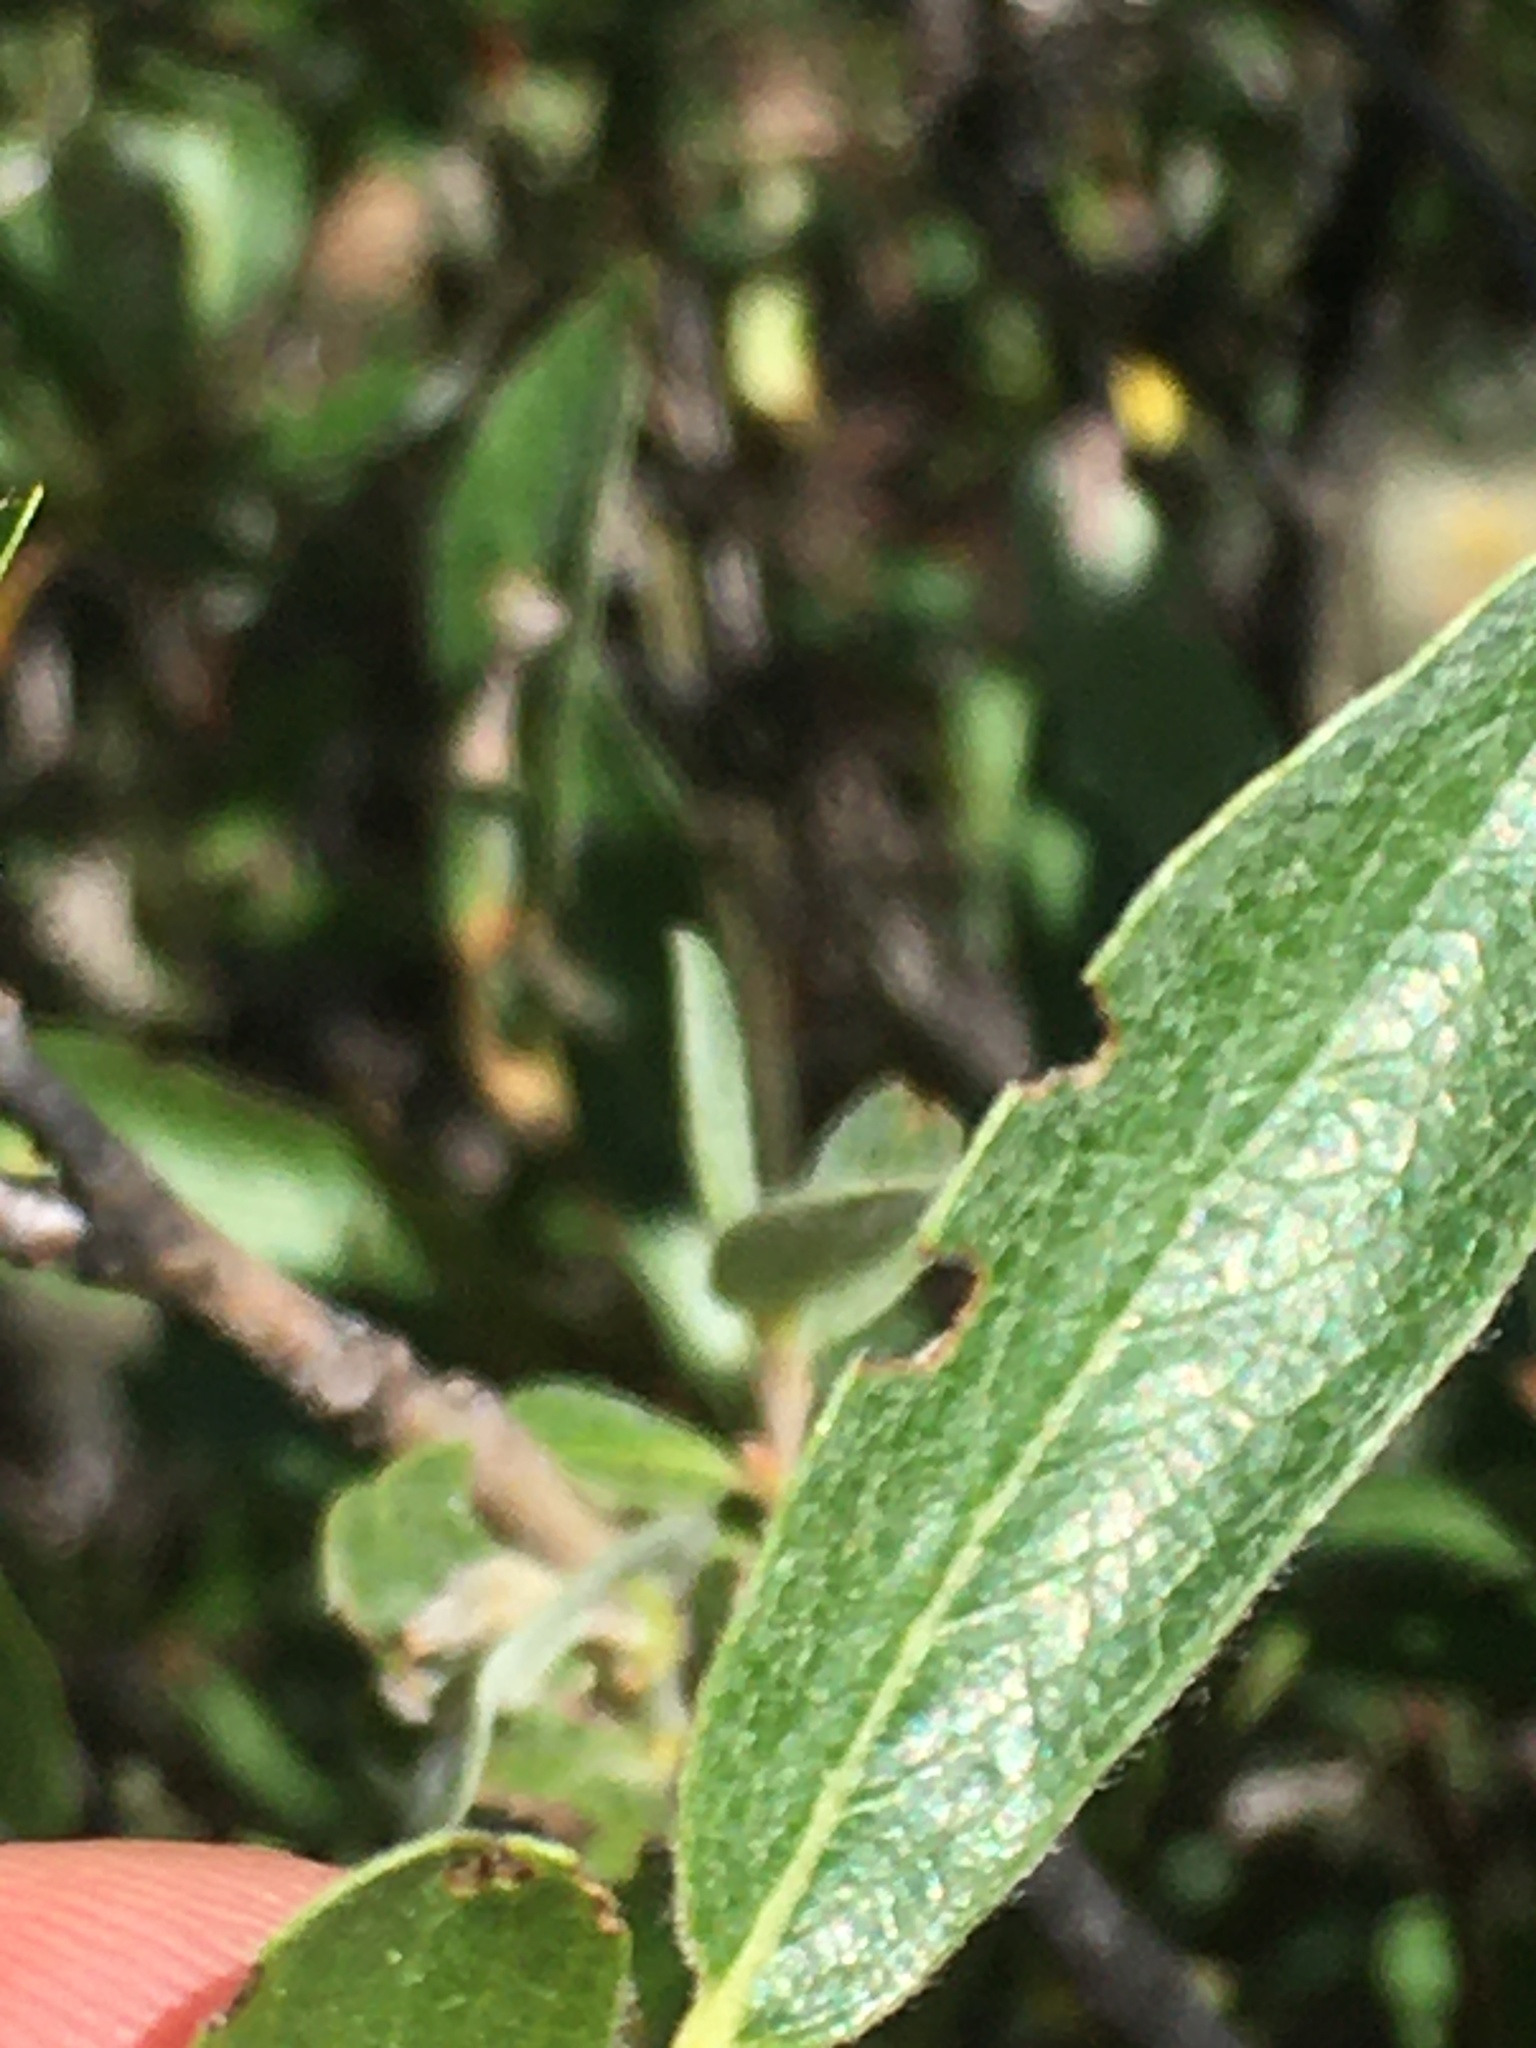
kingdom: Plantae
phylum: Tracheophyta
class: Magnoliopsida
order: Malpighiales
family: Salicaceae
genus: Salix
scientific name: Salix glauca
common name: Glaucous willow
